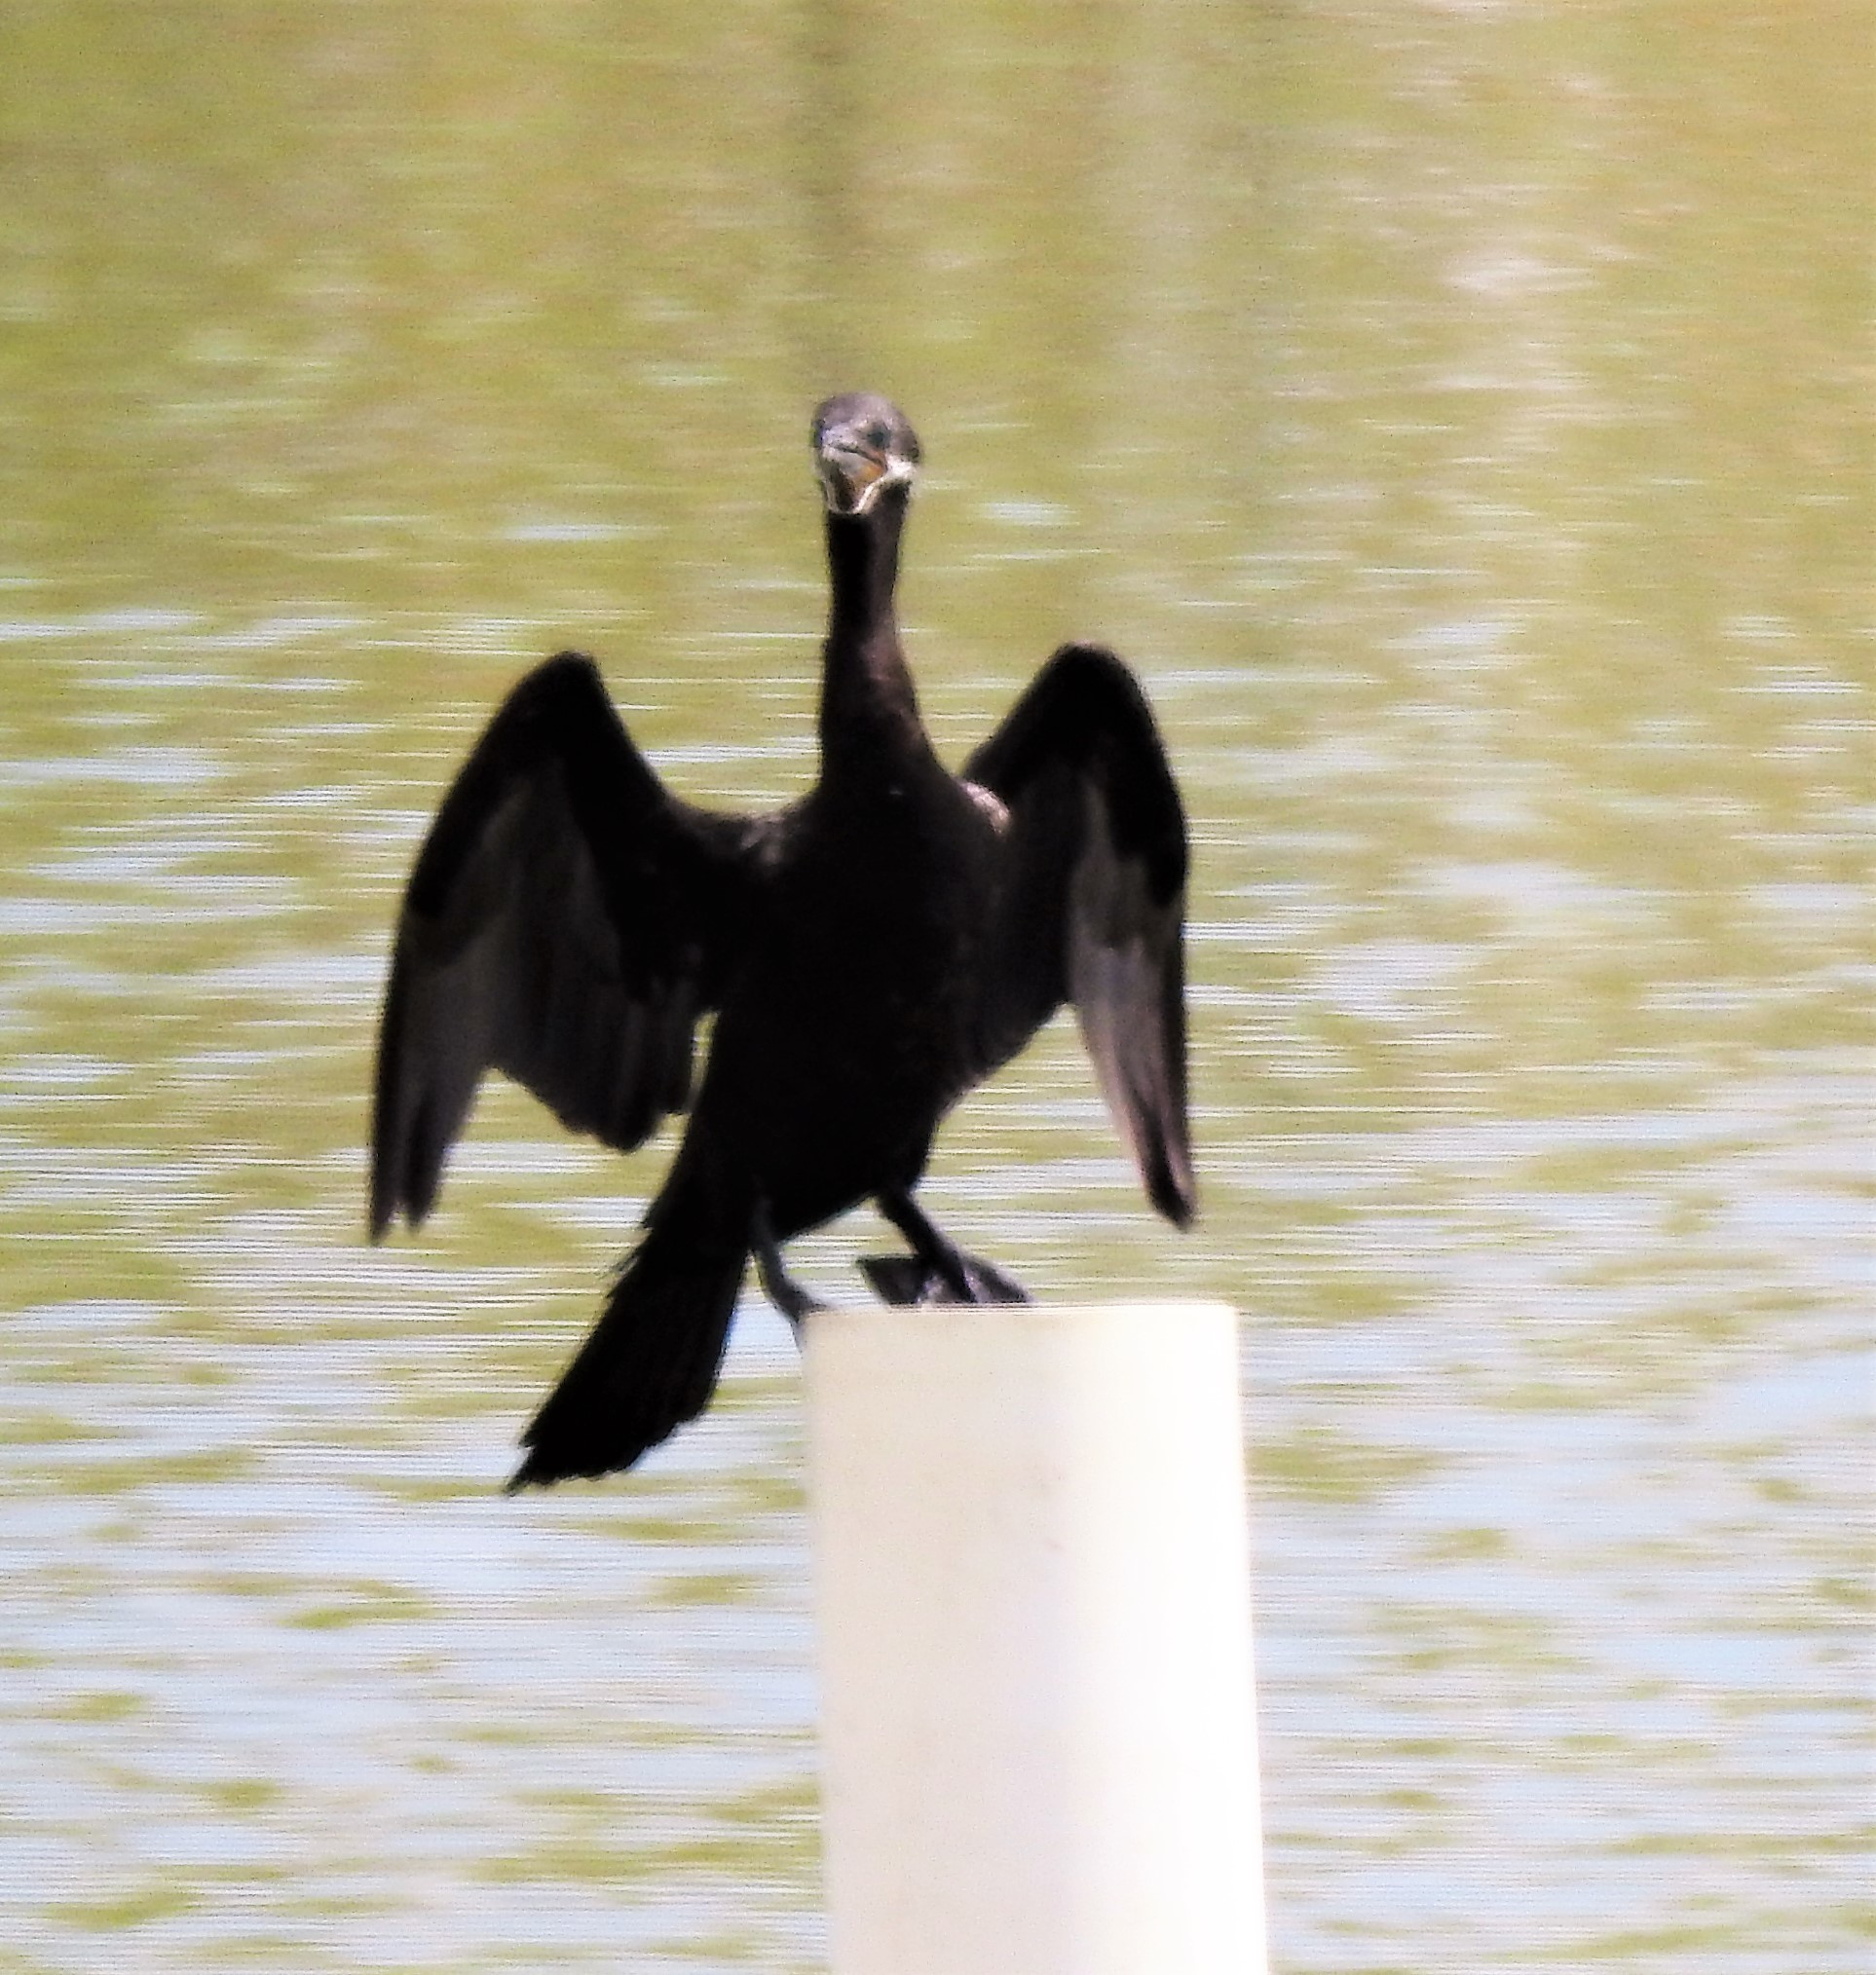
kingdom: Animalia
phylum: Chordata
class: Aves
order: Suliformes
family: Phalacrocoracidae
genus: Phalacrocorax
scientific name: Phalacrocorax brasilianus
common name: Neotropic cormorant
